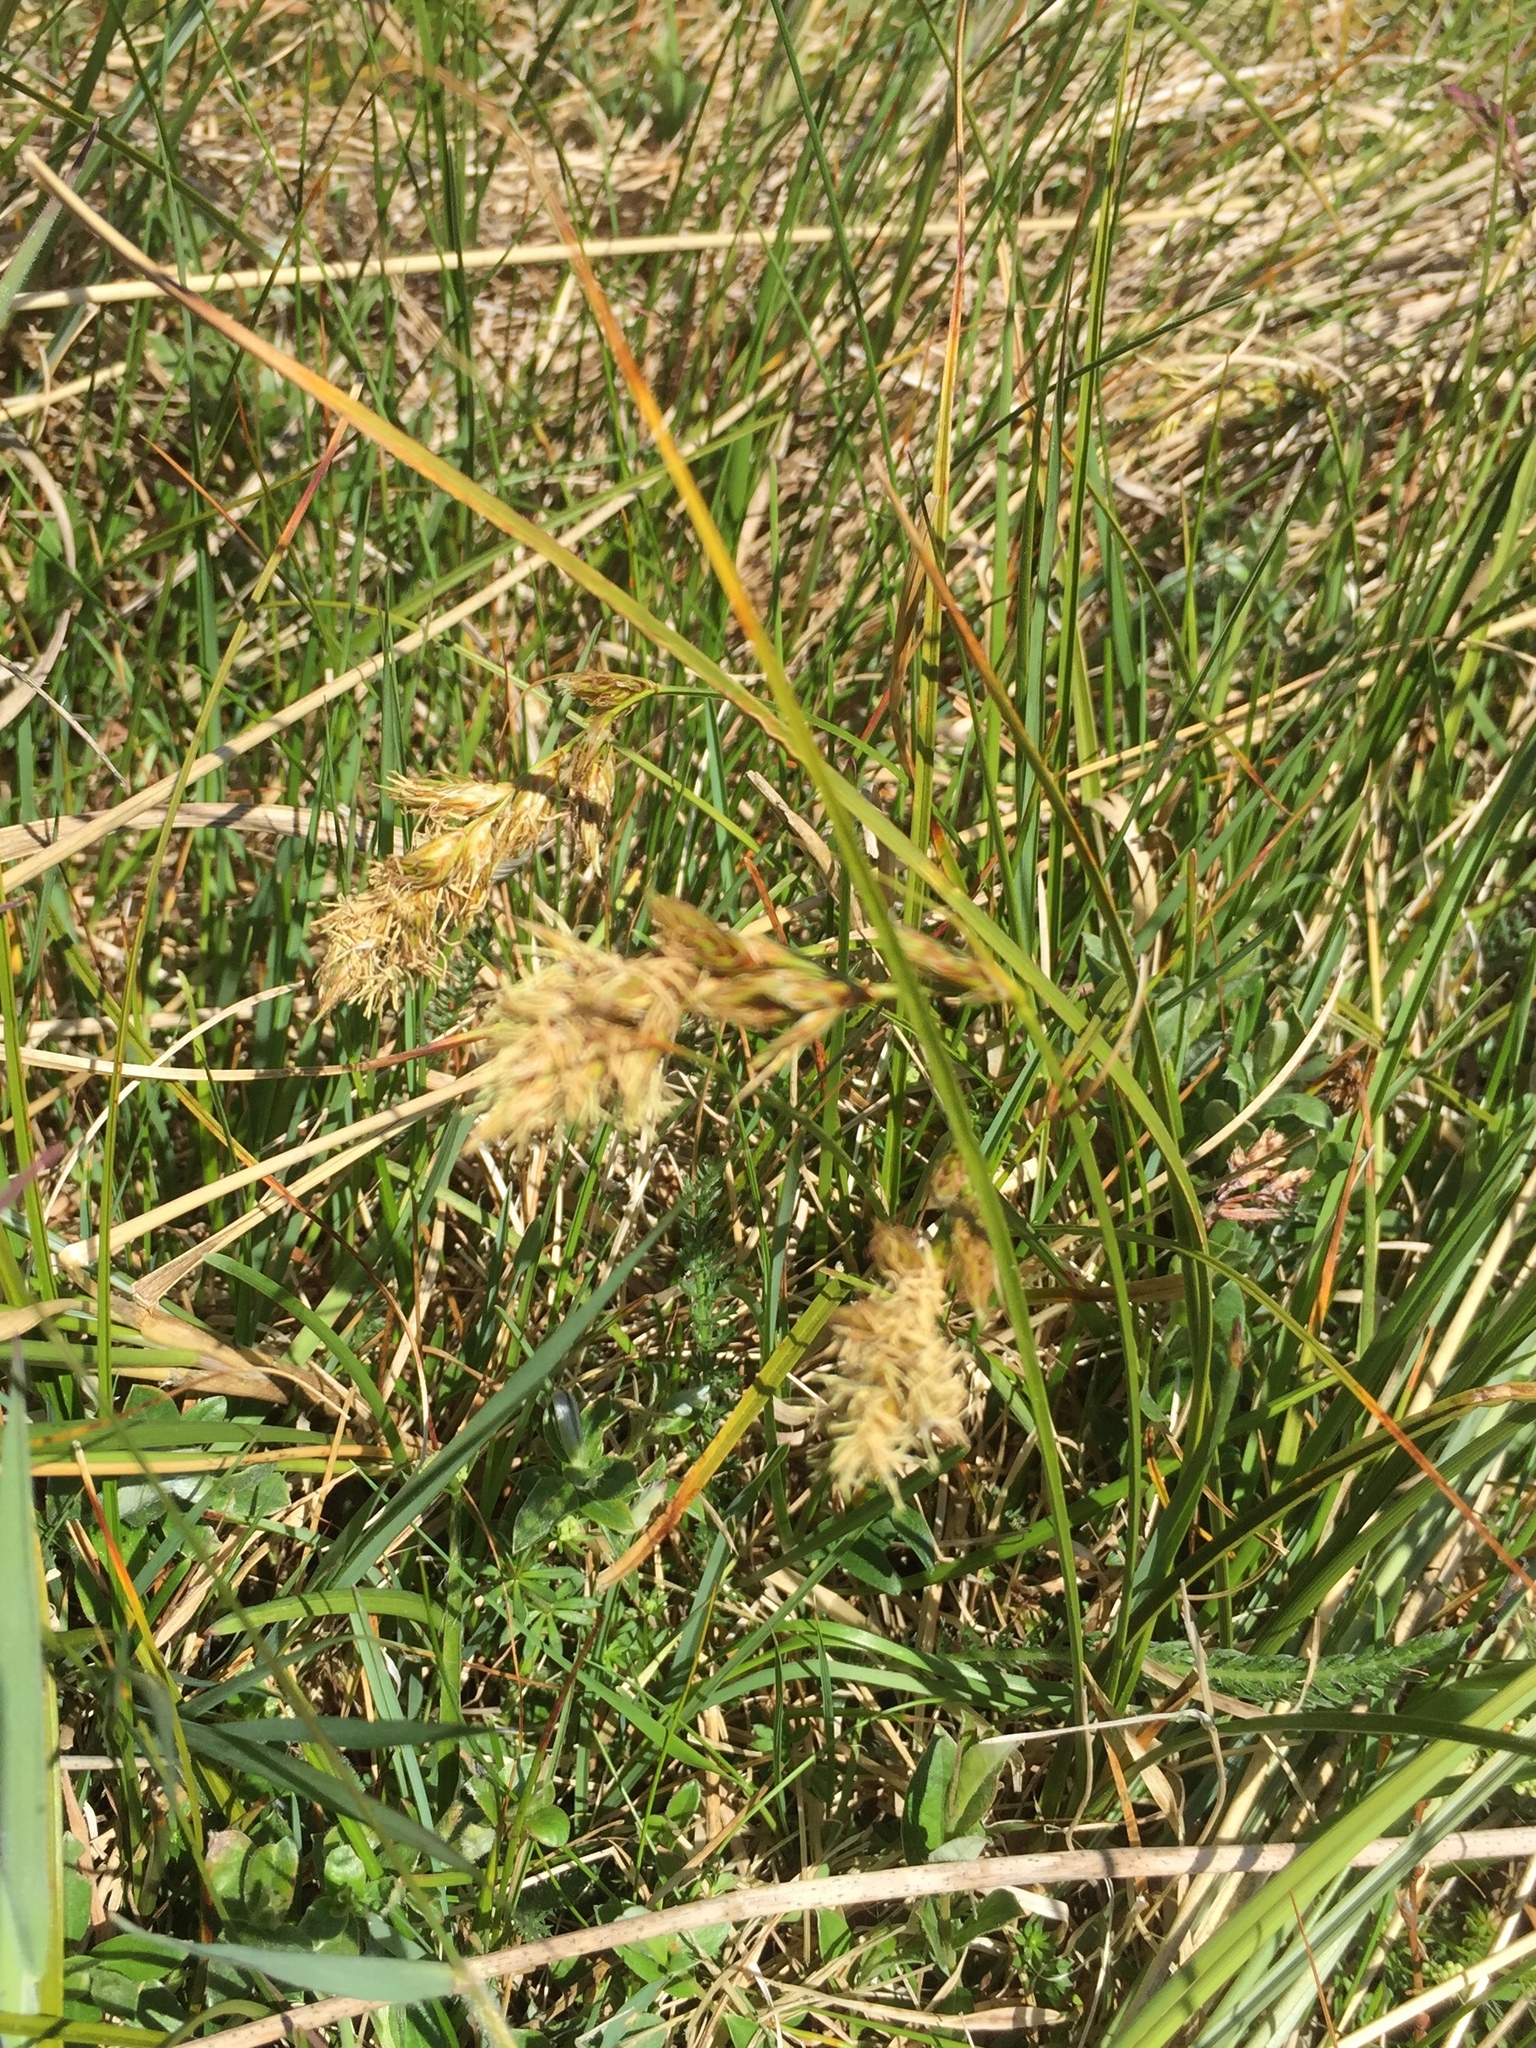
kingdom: Plantae
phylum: Tracheophyta
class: Liliopsida
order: Poales
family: Cyperaceae
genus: Carex
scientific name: Carex arenaria
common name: Sand sedge
